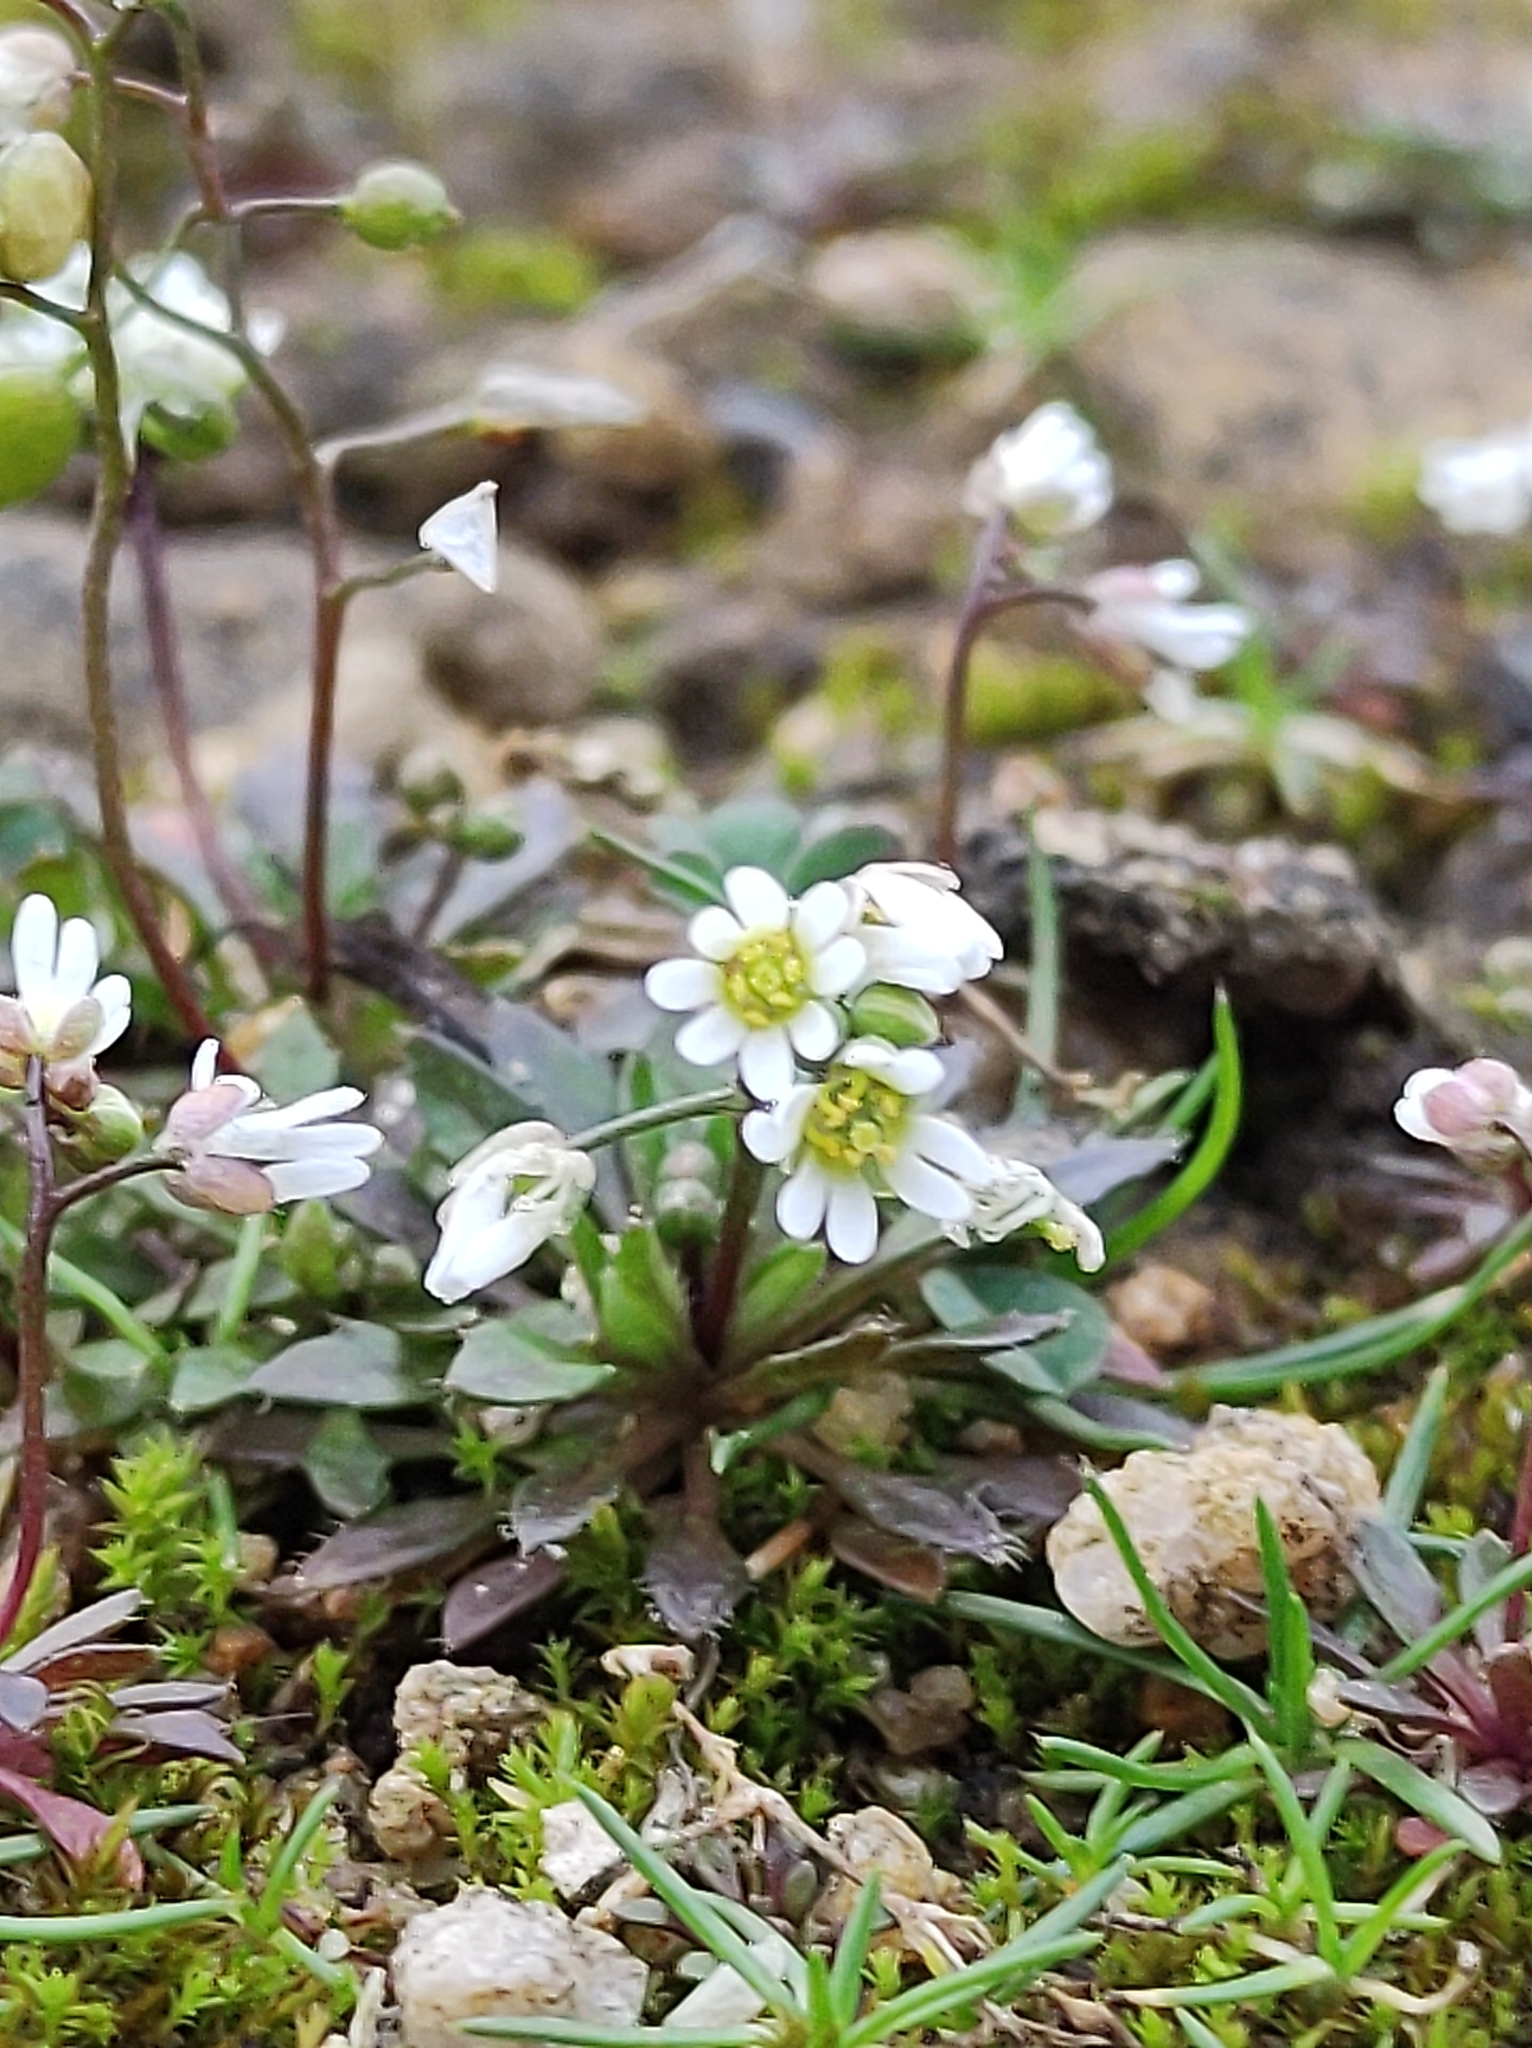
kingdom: Plantae
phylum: Tracheophyta
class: Magnoliopsida
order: Brassicales
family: Brassicaceae
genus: Draba
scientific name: Draba verna
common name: Spring draba
